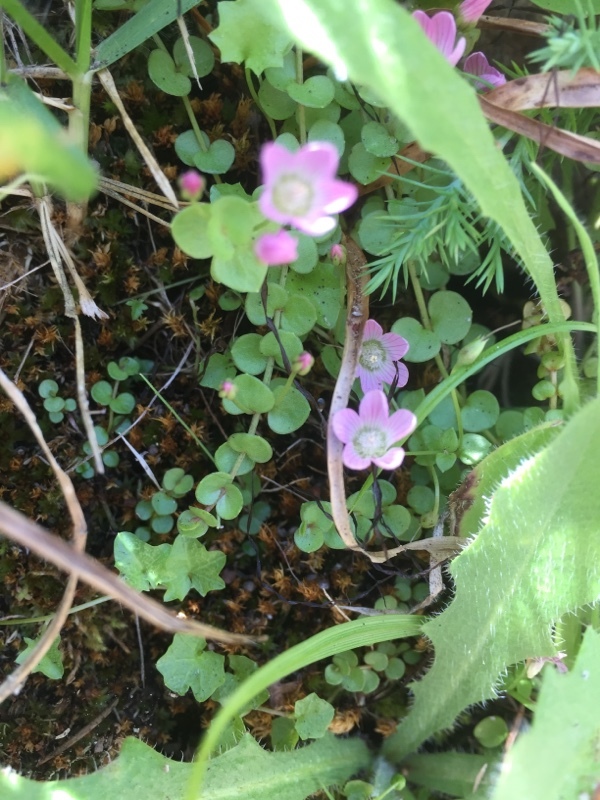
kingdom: Plantae
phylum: Tracheophyta
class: Magnoliopsida
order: Ericales
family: Primulaceae
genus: Lysimachia
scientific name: Lysimachia tenella
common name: European bog pimpernel
